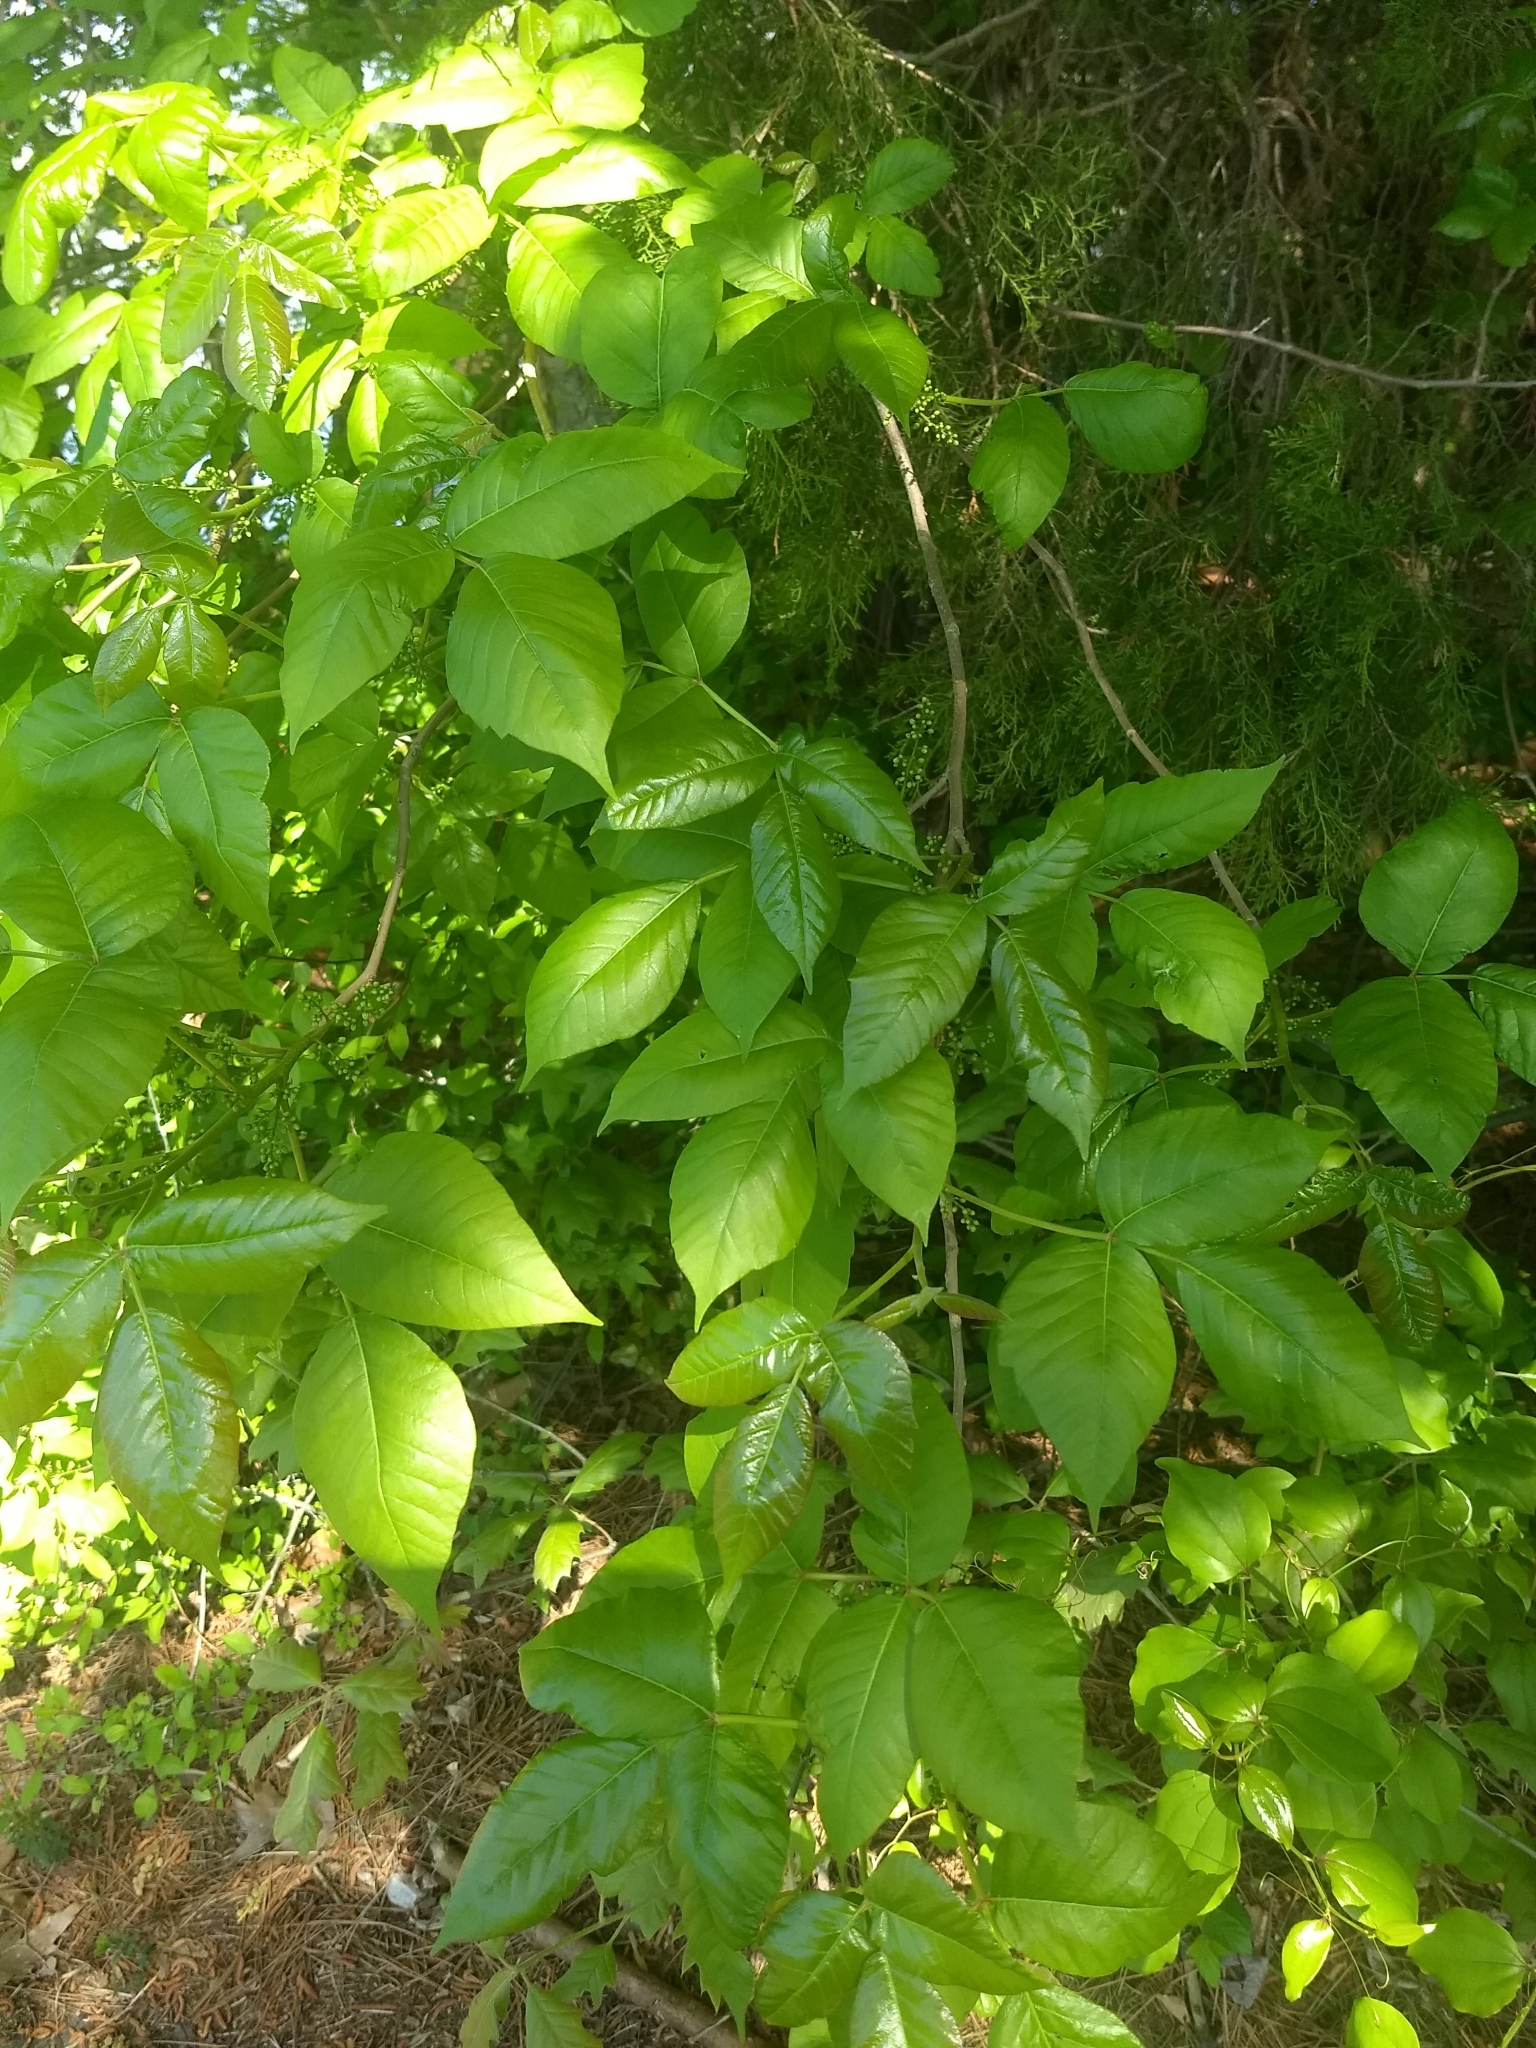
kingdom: Plantae
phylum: Tracheophyta
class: Magnoliopsida
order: Sapindales
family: Anacardiaceae
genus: Toxicodendron
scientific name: Toxicodendron radicans
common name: Poison ivy
